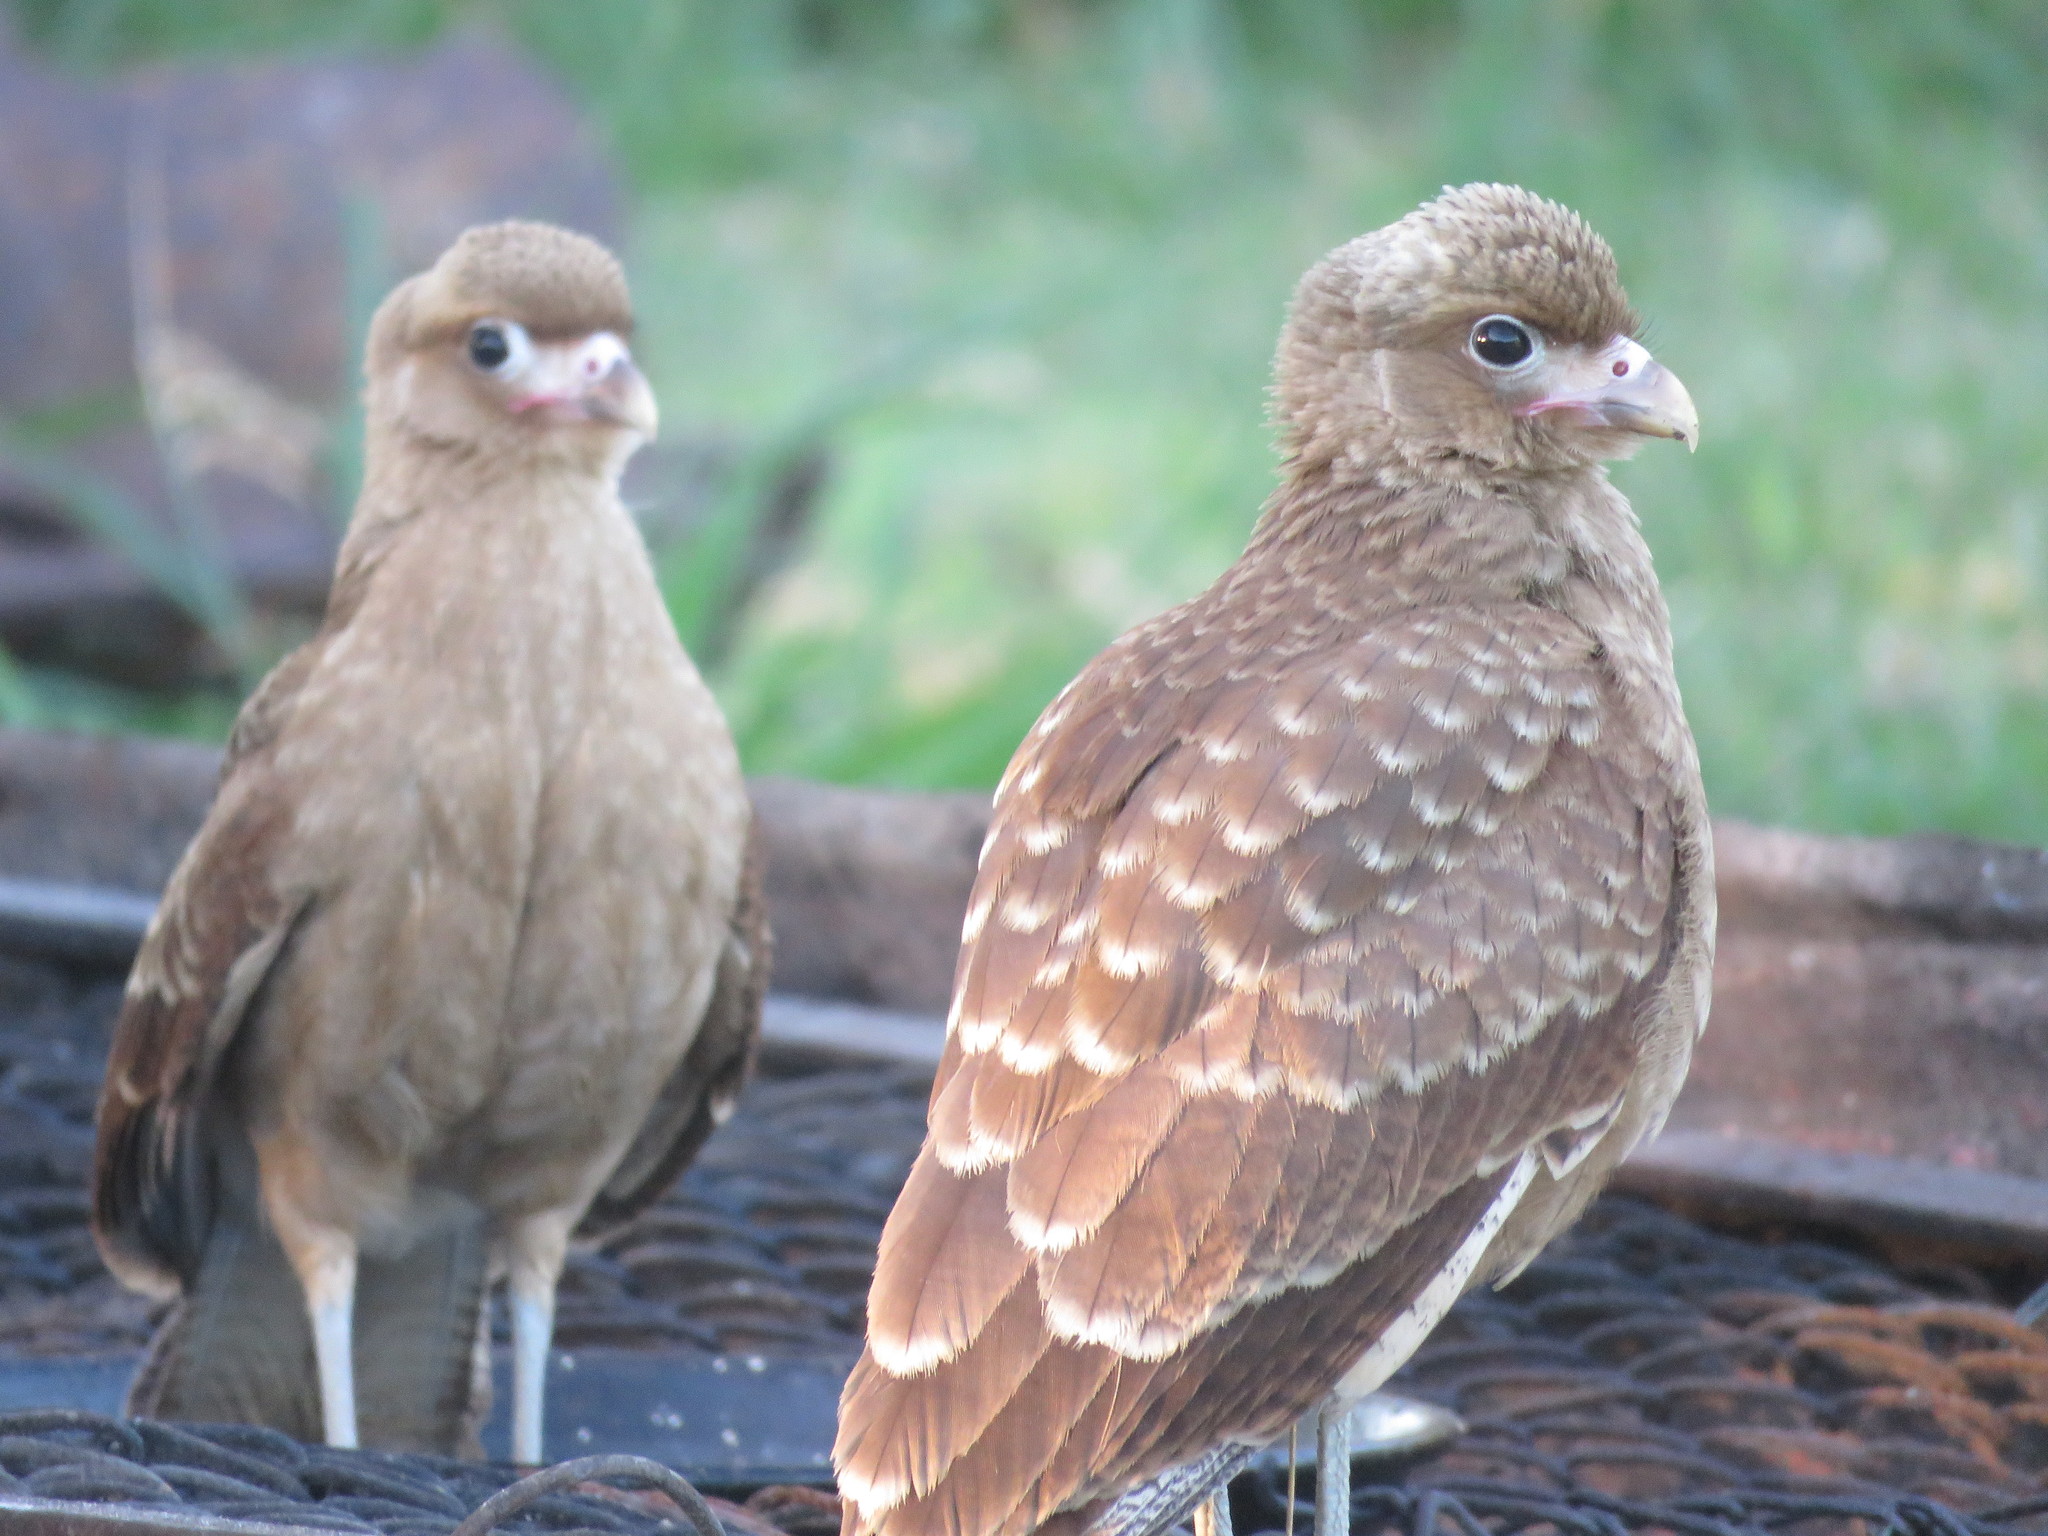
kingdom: Animalia
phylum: Chordata
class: Aves
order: Falconiformes
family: Falconidae
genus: Daptrius
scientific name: Daptrius
